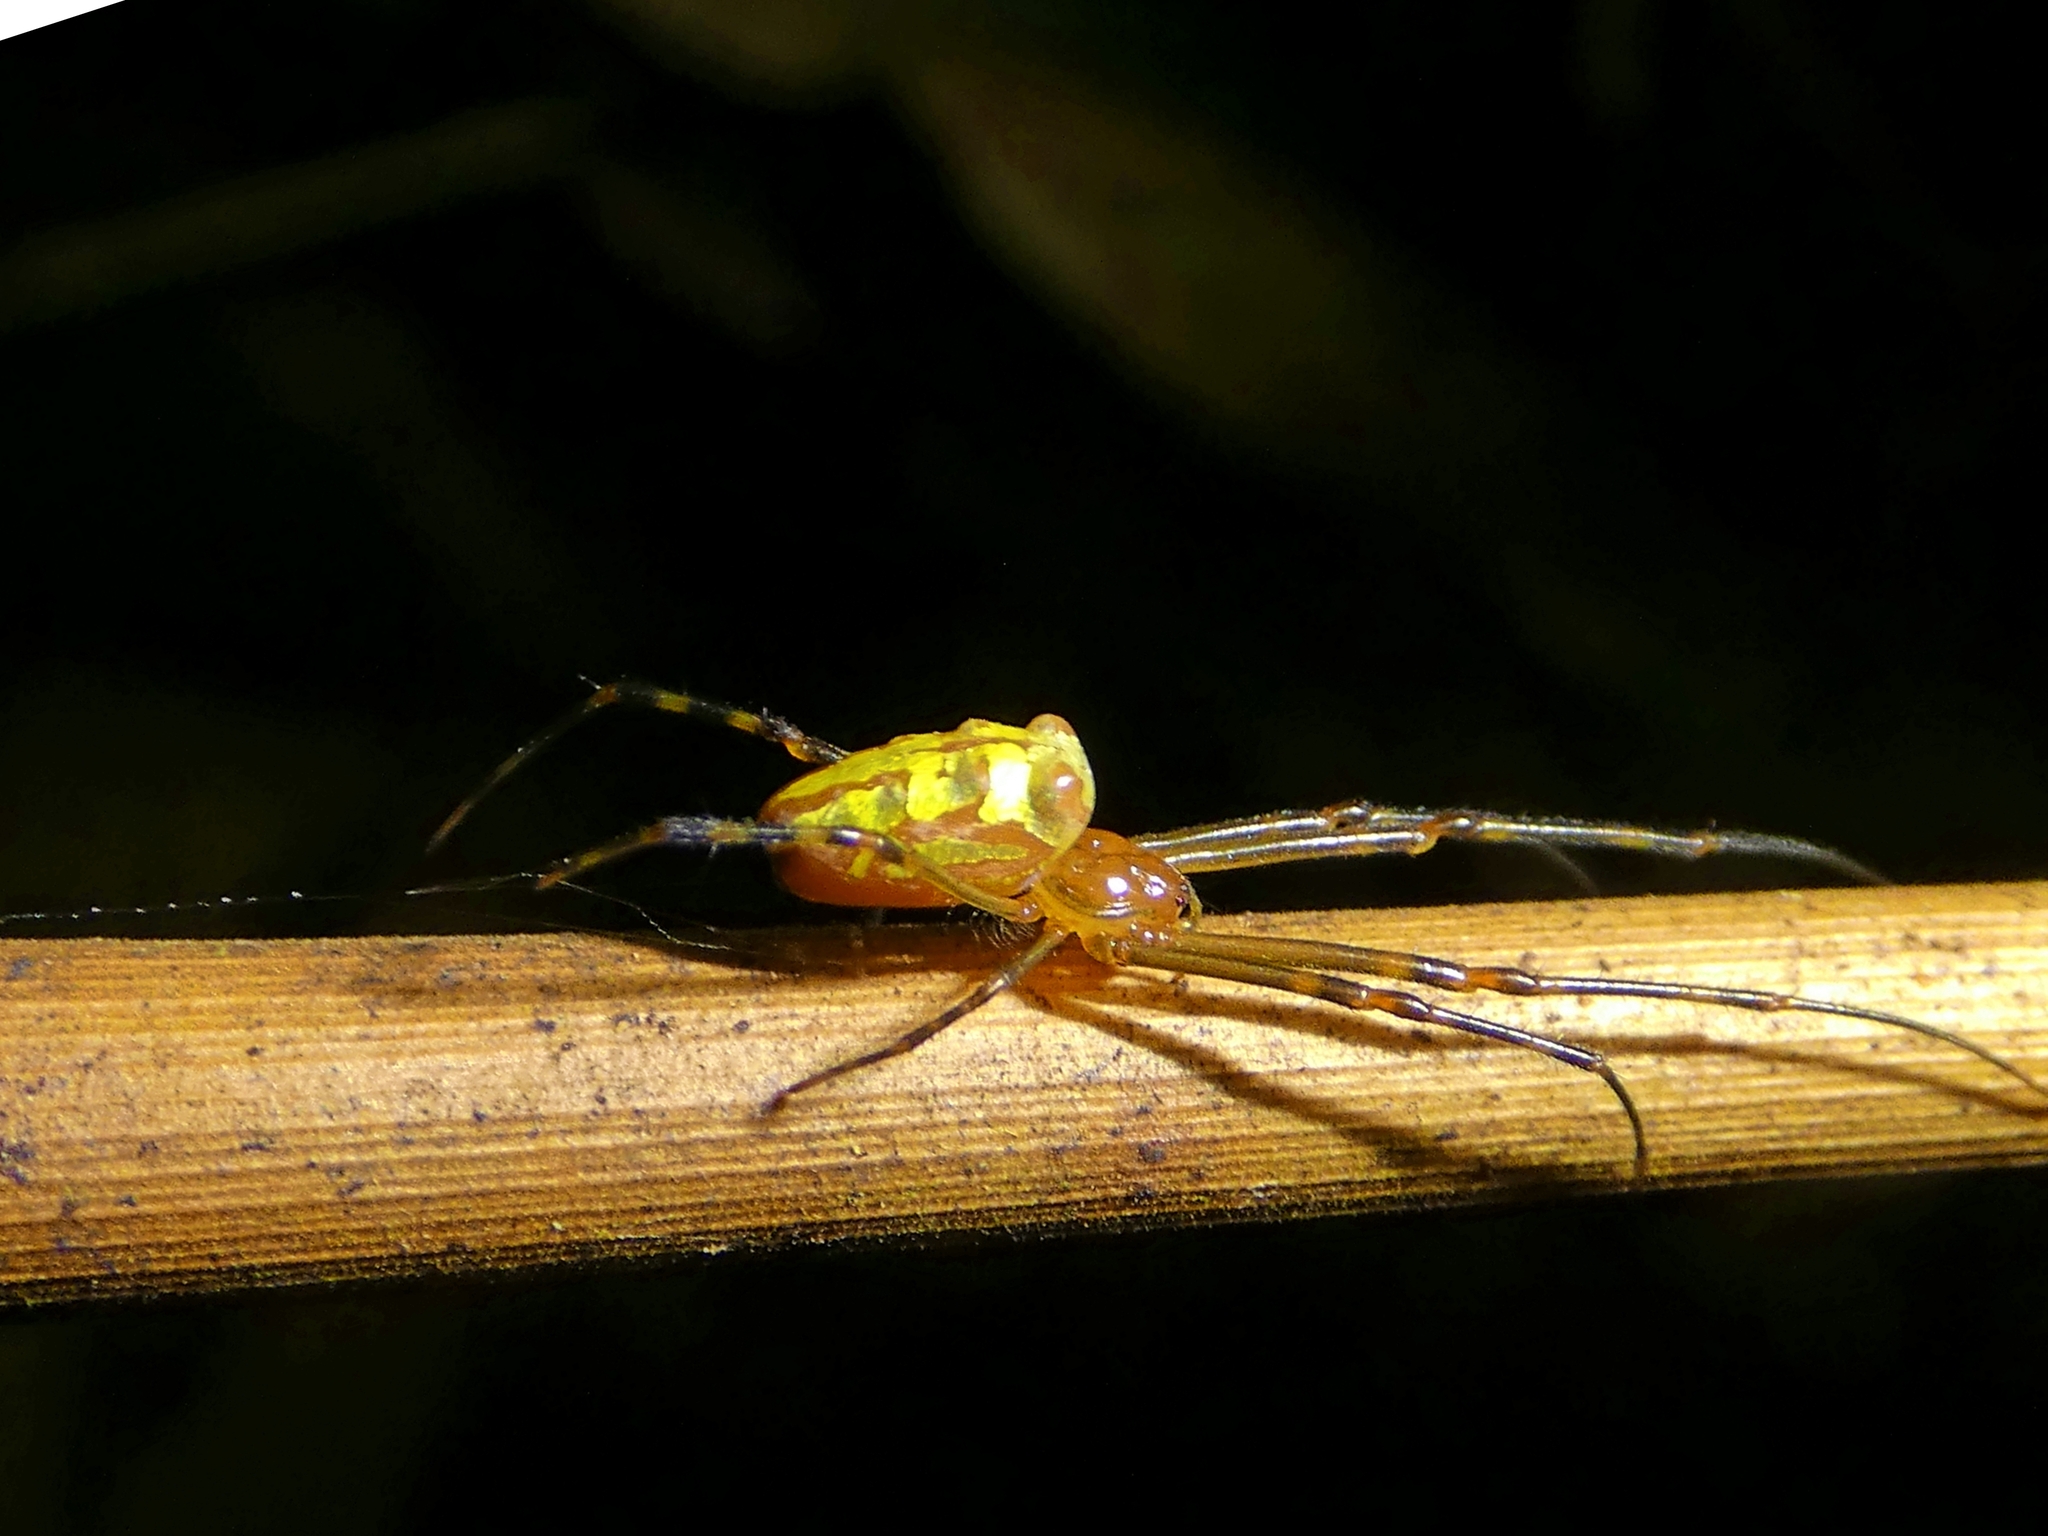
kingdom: Animalia
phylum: Arthropoda
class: Arachnida
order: Araneae
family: Tetragnathidae
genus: Leucauge
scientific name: Leucauge granulata
